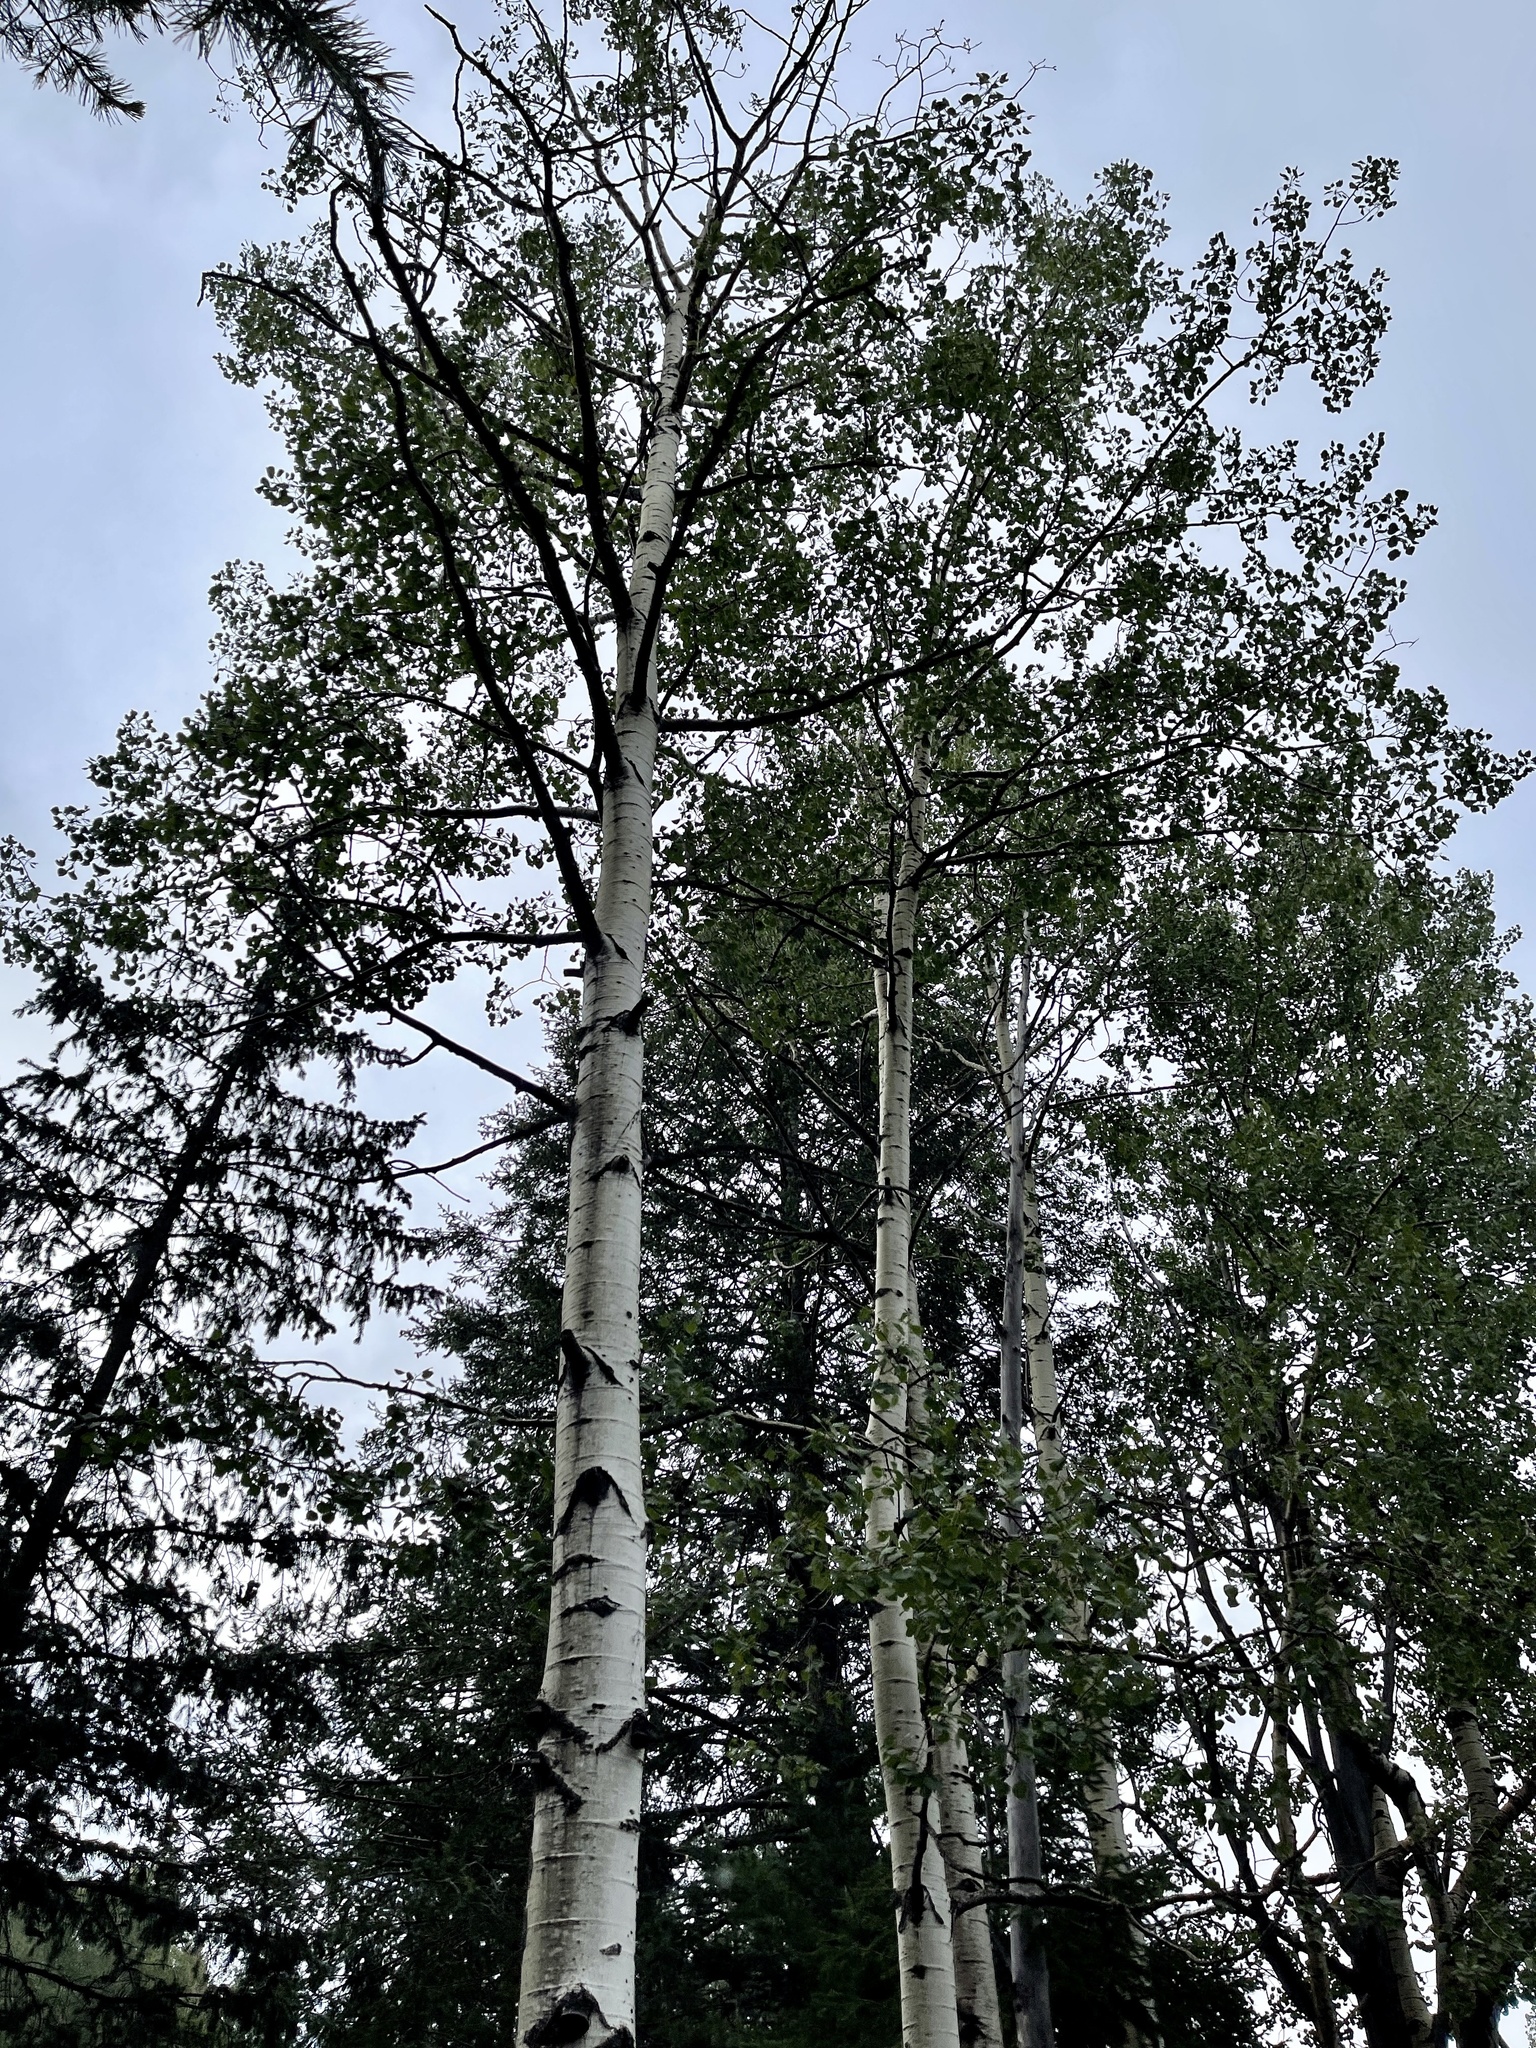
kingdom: Plantae
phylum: Tracheophyta
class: Magnoliopsida
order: Malpighiales
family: Salicaceae
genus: Populus
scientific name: Populus tremuloides
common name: Quaking aspen
